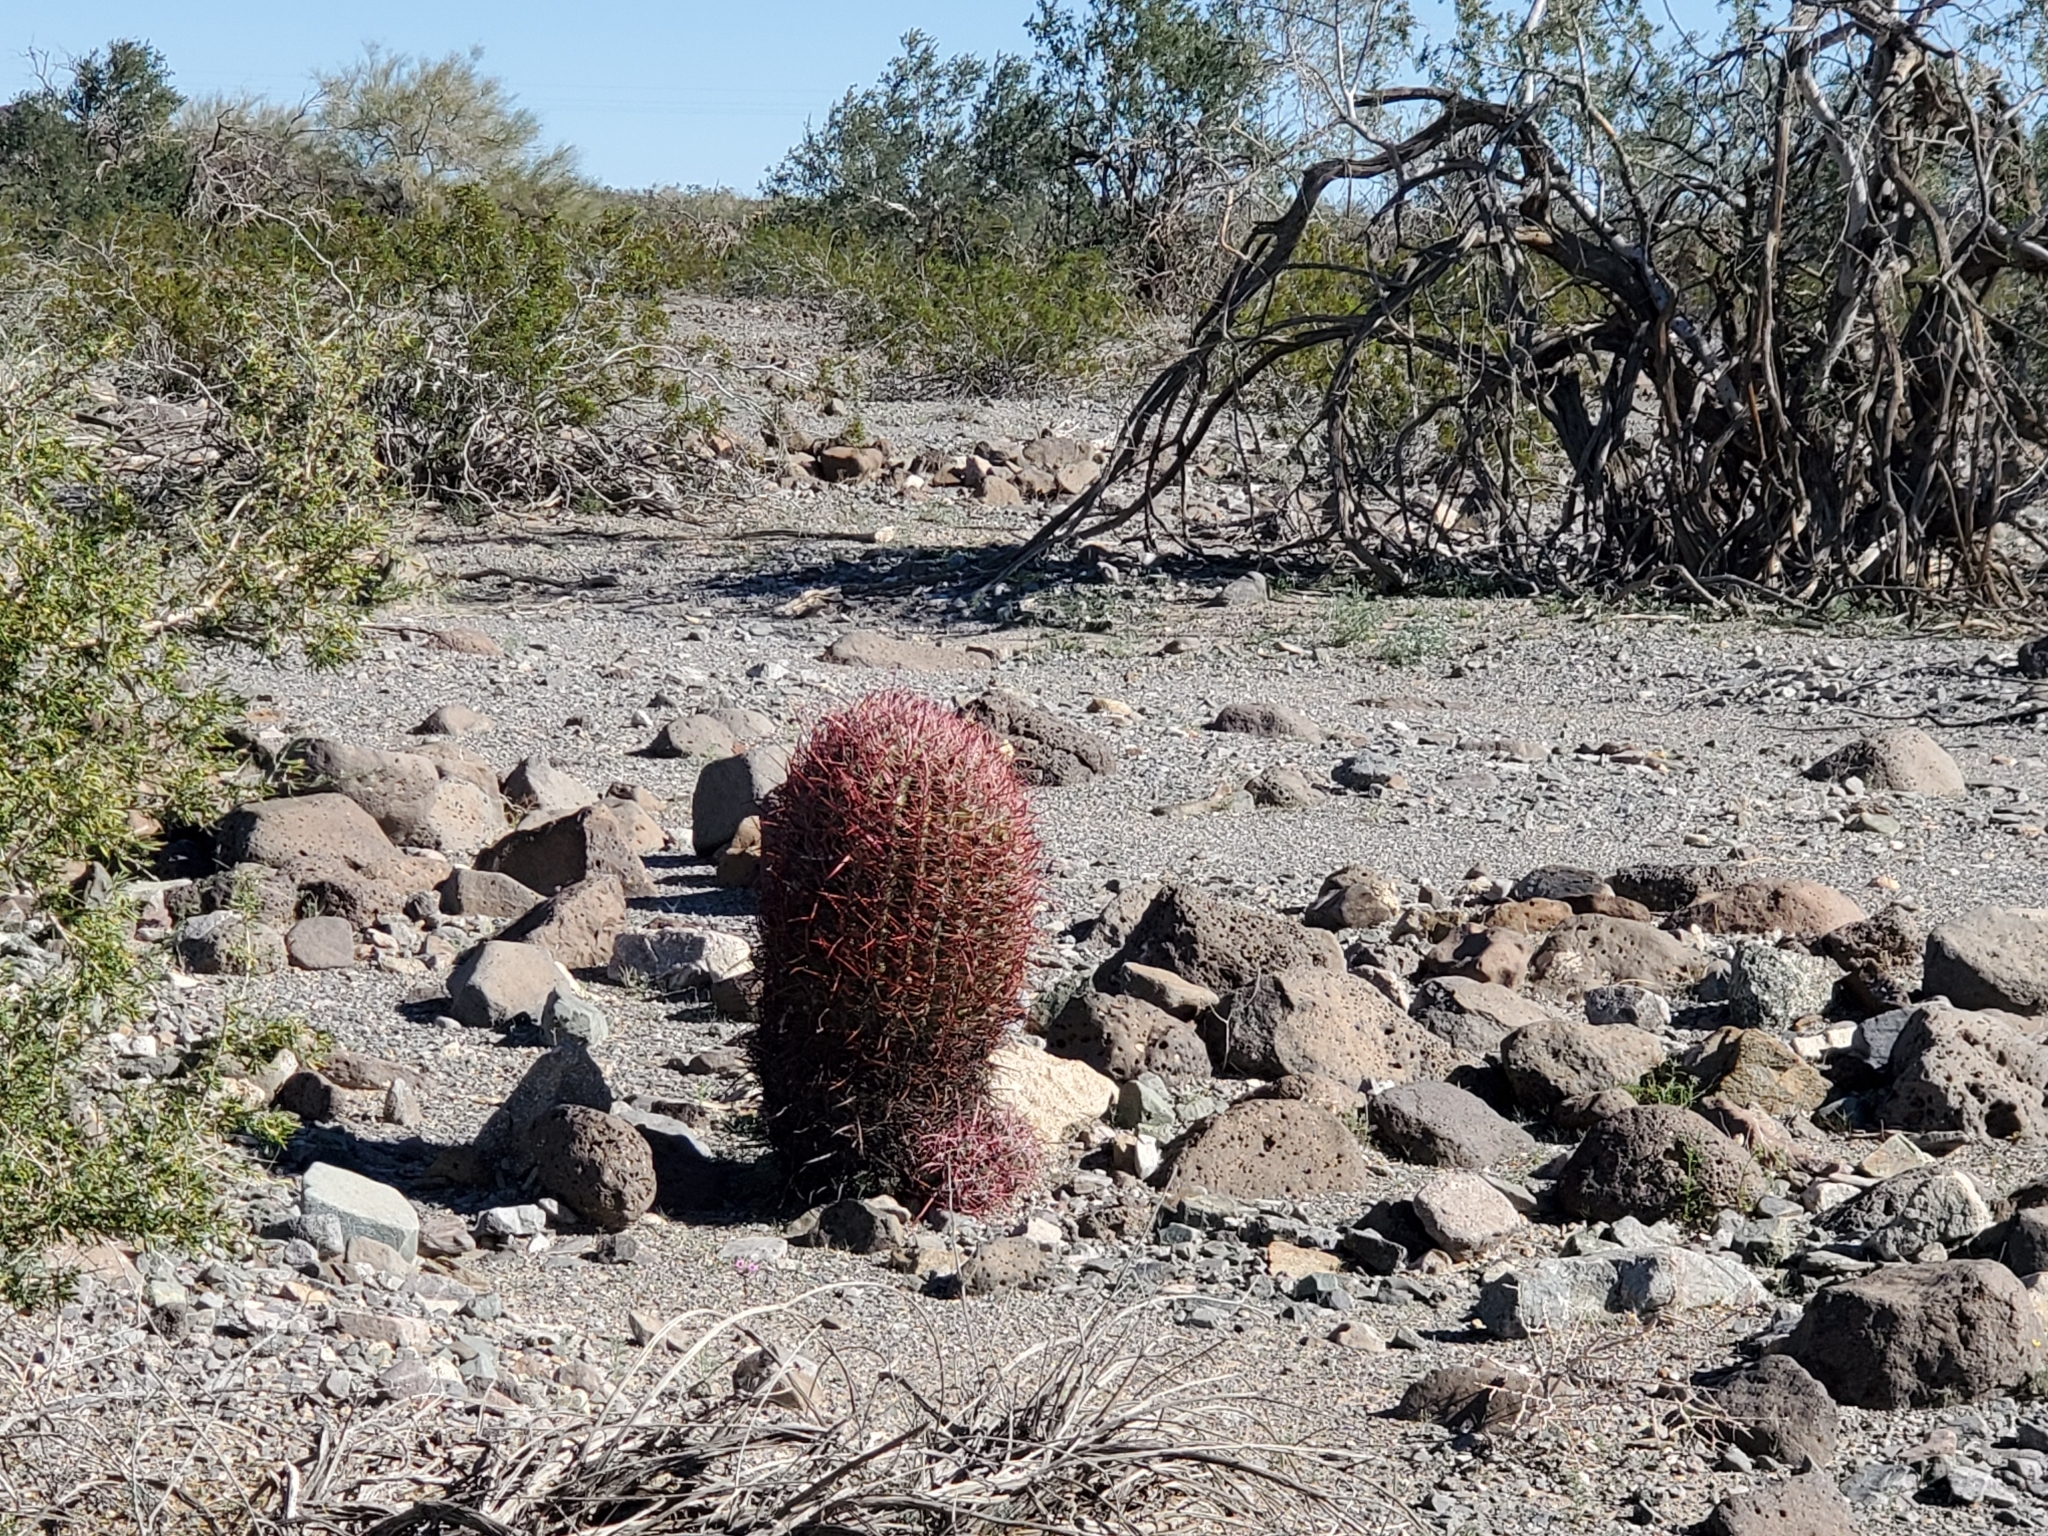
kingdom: Plantae
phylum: Tracheophyta
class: Magnoliopsida
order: Caryophyllales
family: Cactaceae
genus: Ferocactus
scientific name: Ferocactus cylindraceus
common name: California barrel cactus
